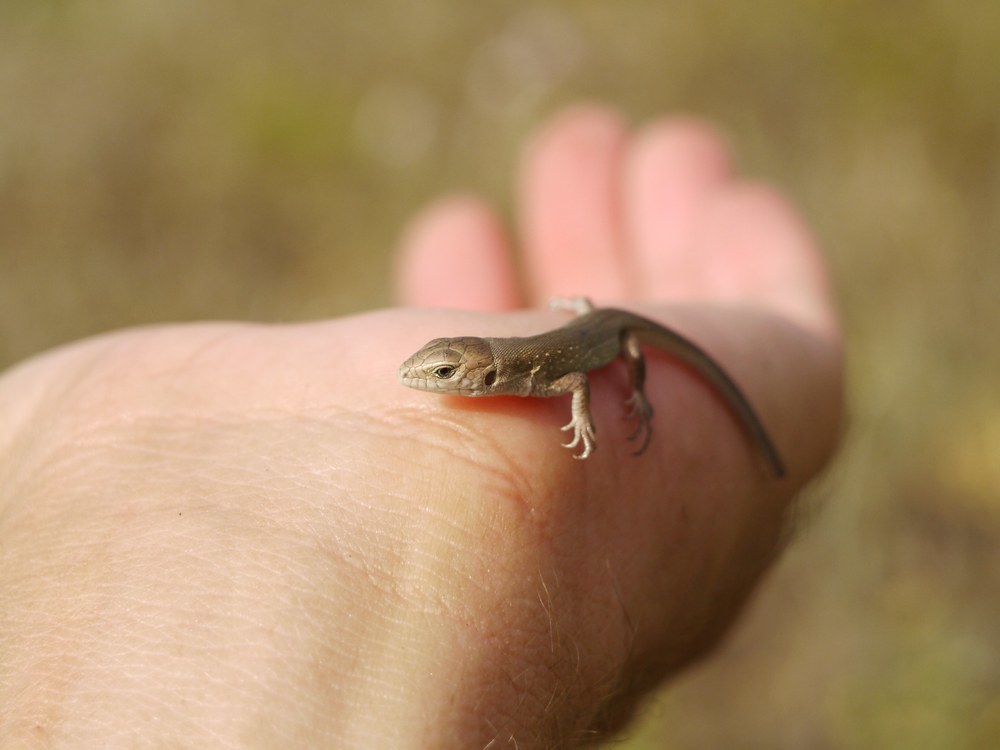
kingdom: Animalia
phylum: Chordata
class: Squamata
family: Lacertidae
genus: Lacerta
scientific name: Lacerta agilis
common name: Sand lizard
